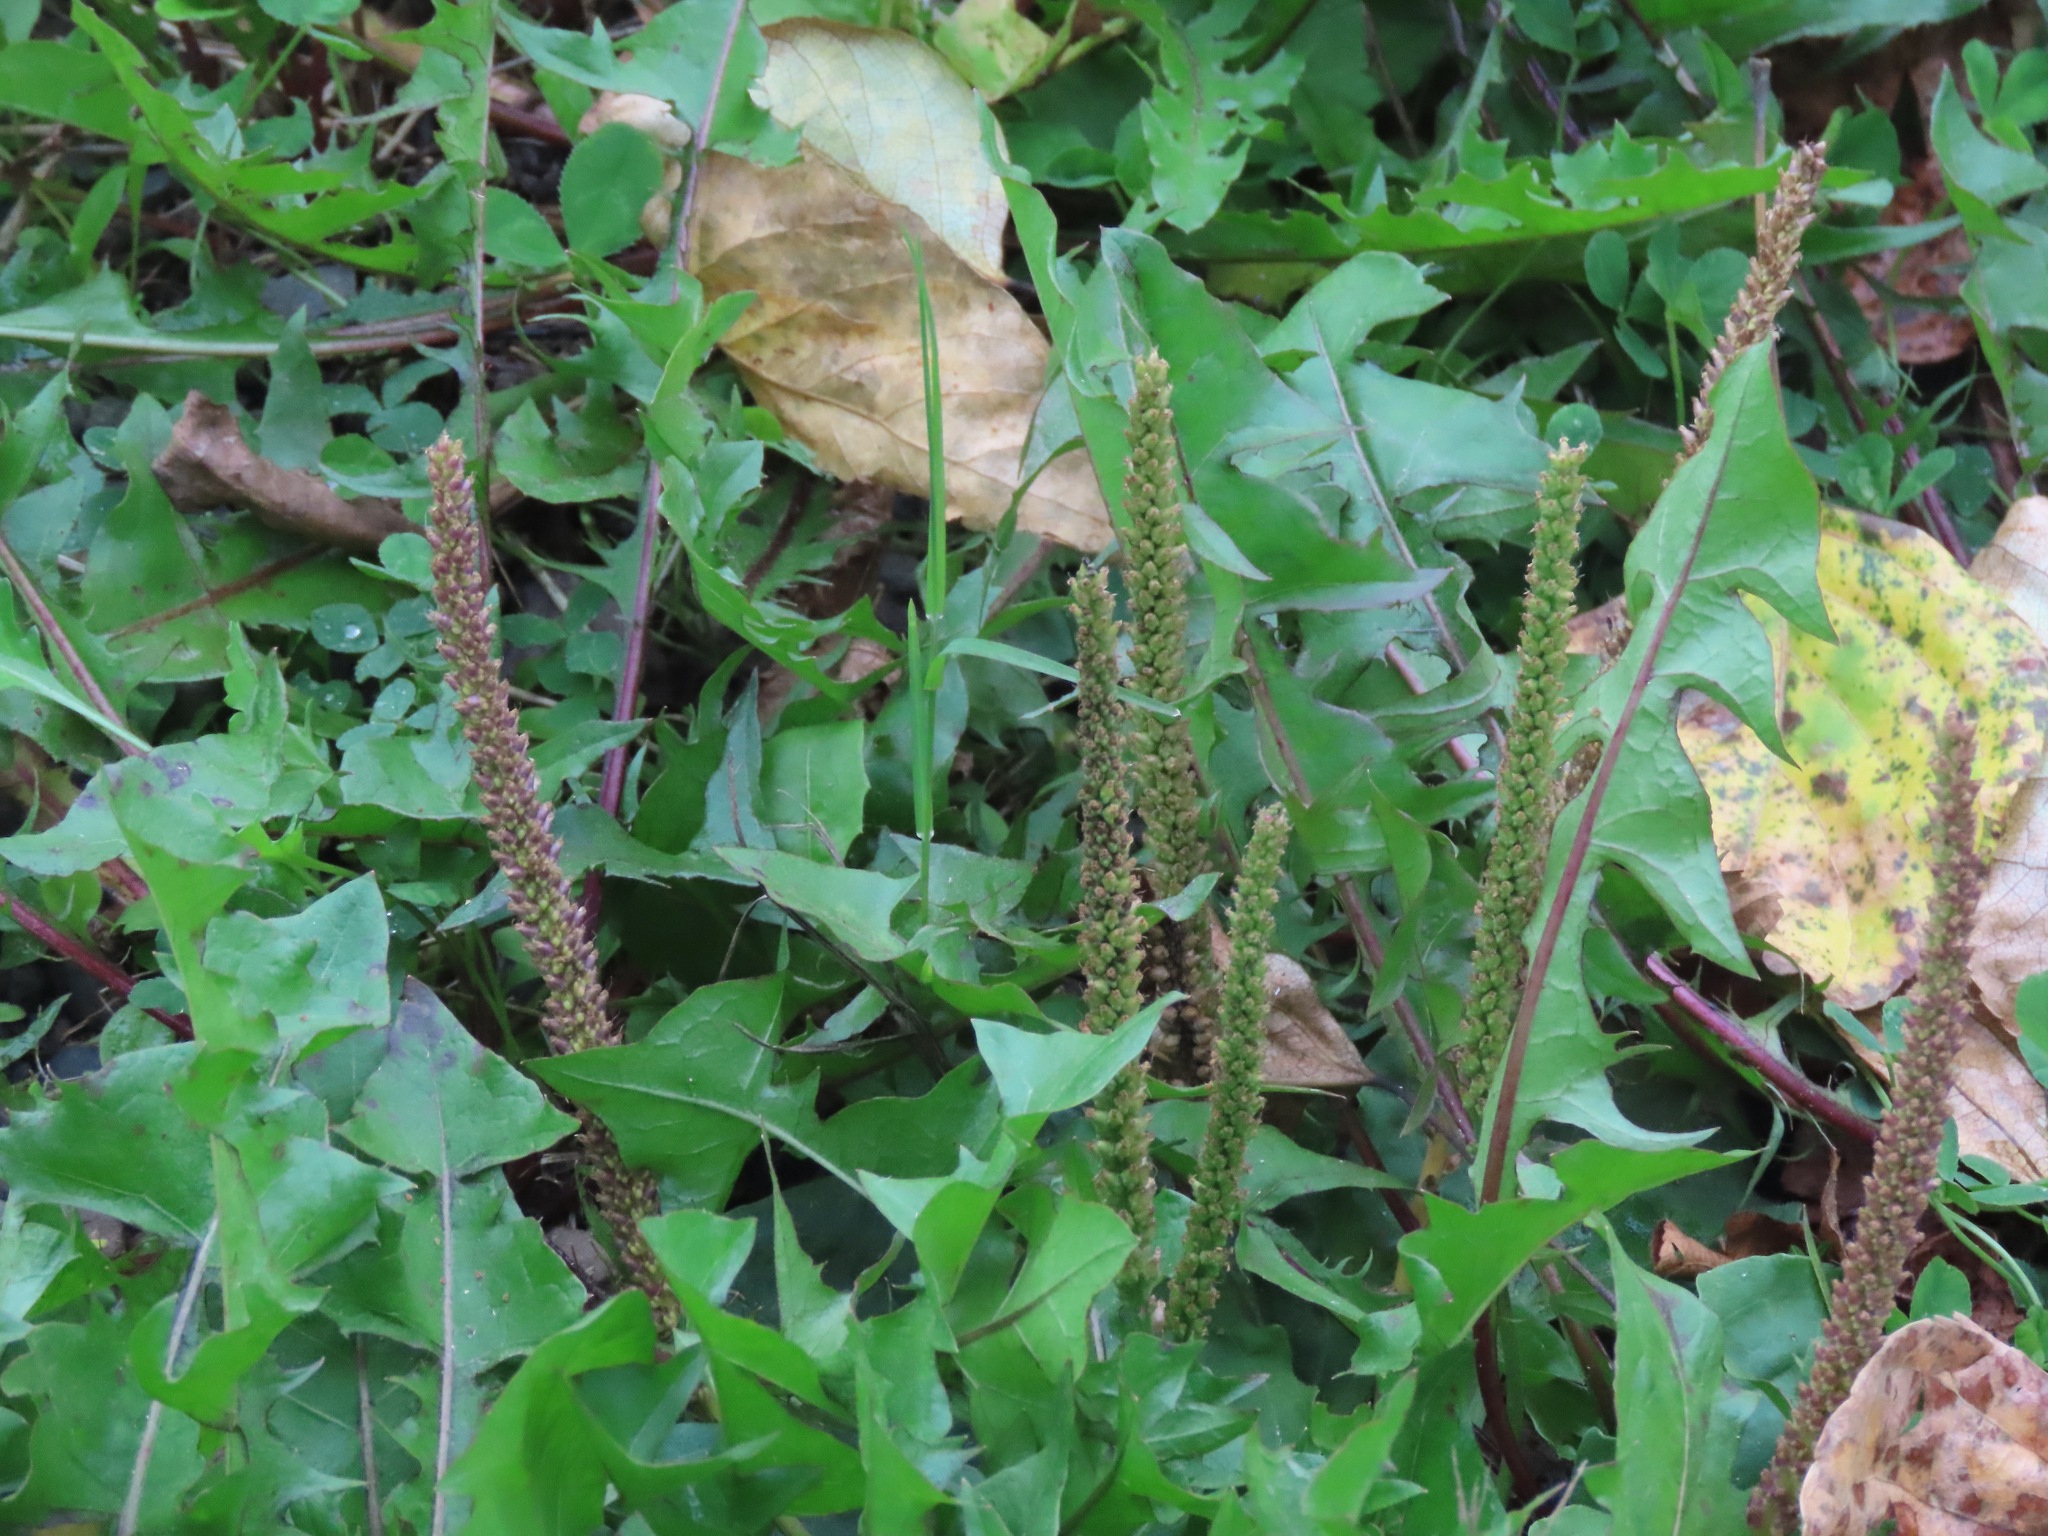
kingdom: Plantae
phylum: Tracheophyta
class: Magnoliopsida
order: Lamiales
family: Plantaginaceae
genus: Plantago
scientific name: Plantago major
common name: Common plantain
